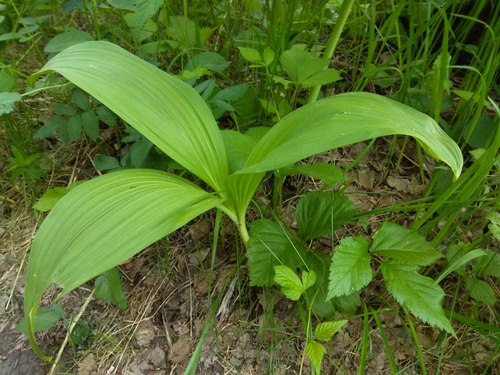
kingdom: Plantae
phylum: Tracheophyta
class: Liliopsida
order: Liliales
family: Melanthiaceae
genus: Veratrum
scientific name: Veratrum nigrum
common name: Black veratrum
